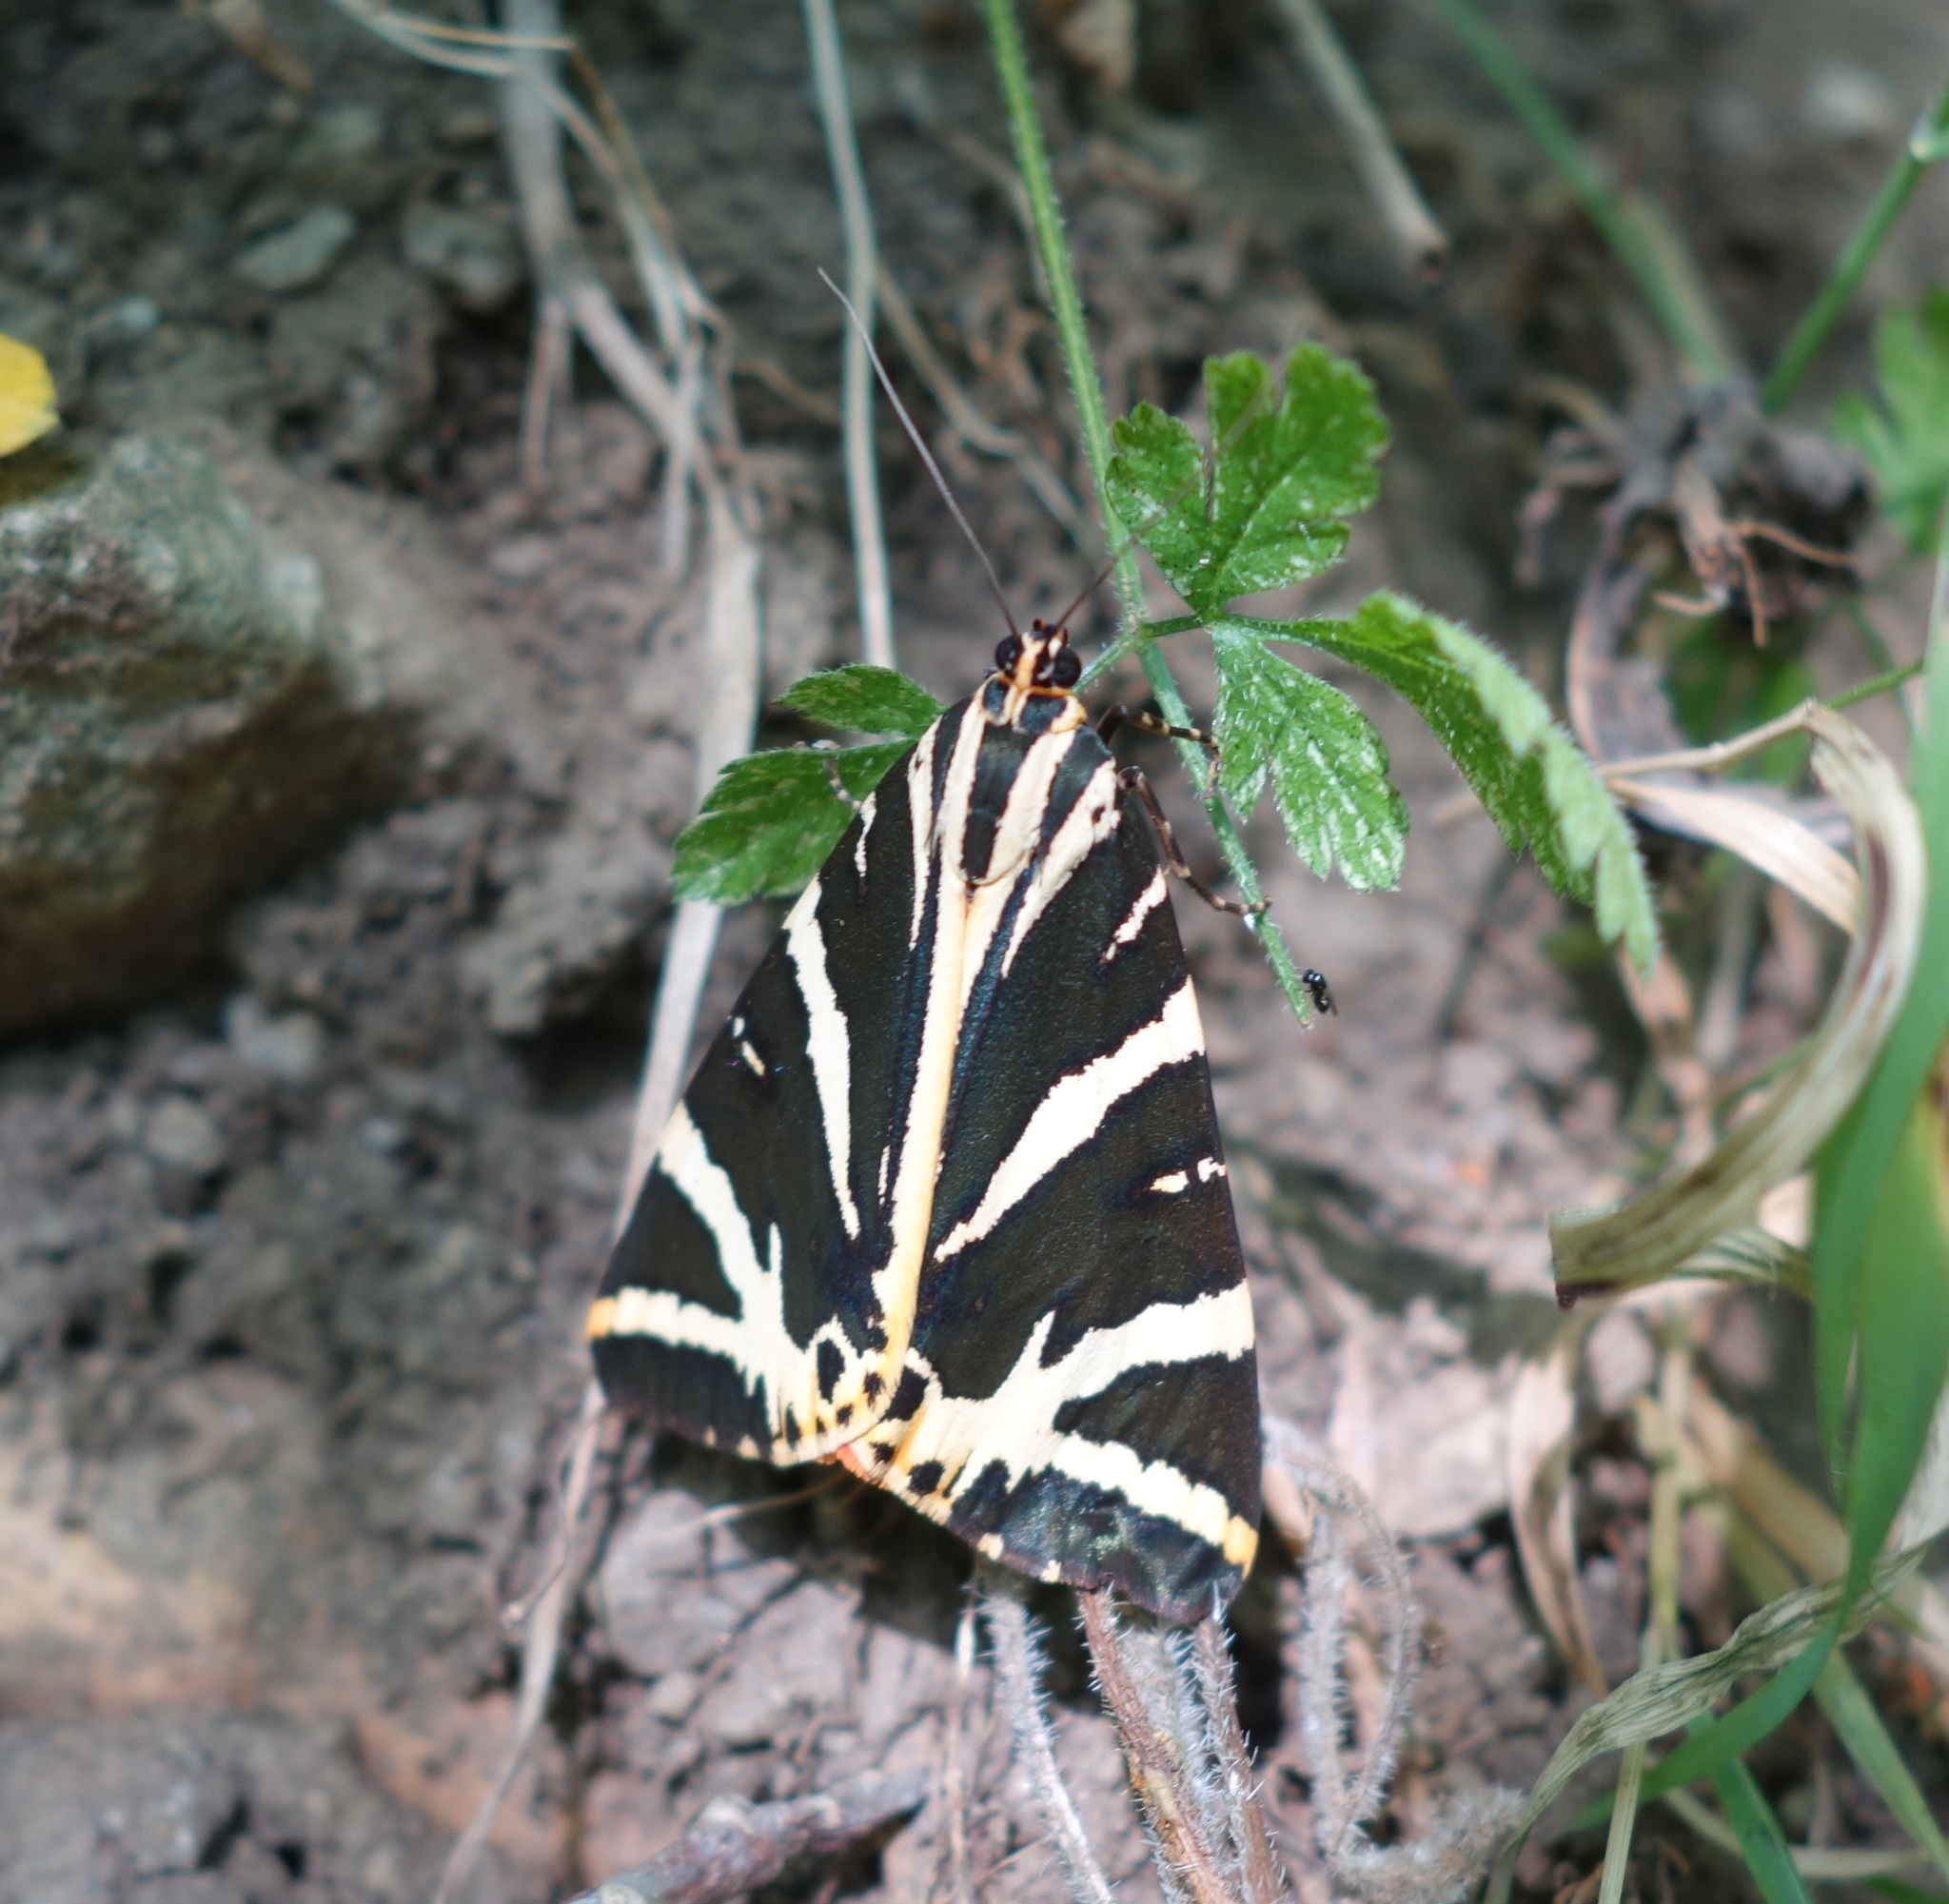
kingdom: Animalia
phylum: Arthropoda
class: Insecta
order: Lepidoptera
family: Erebidae
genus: Euplagia
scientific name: Euplagia quadripunctaria
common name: Jersey tiger
